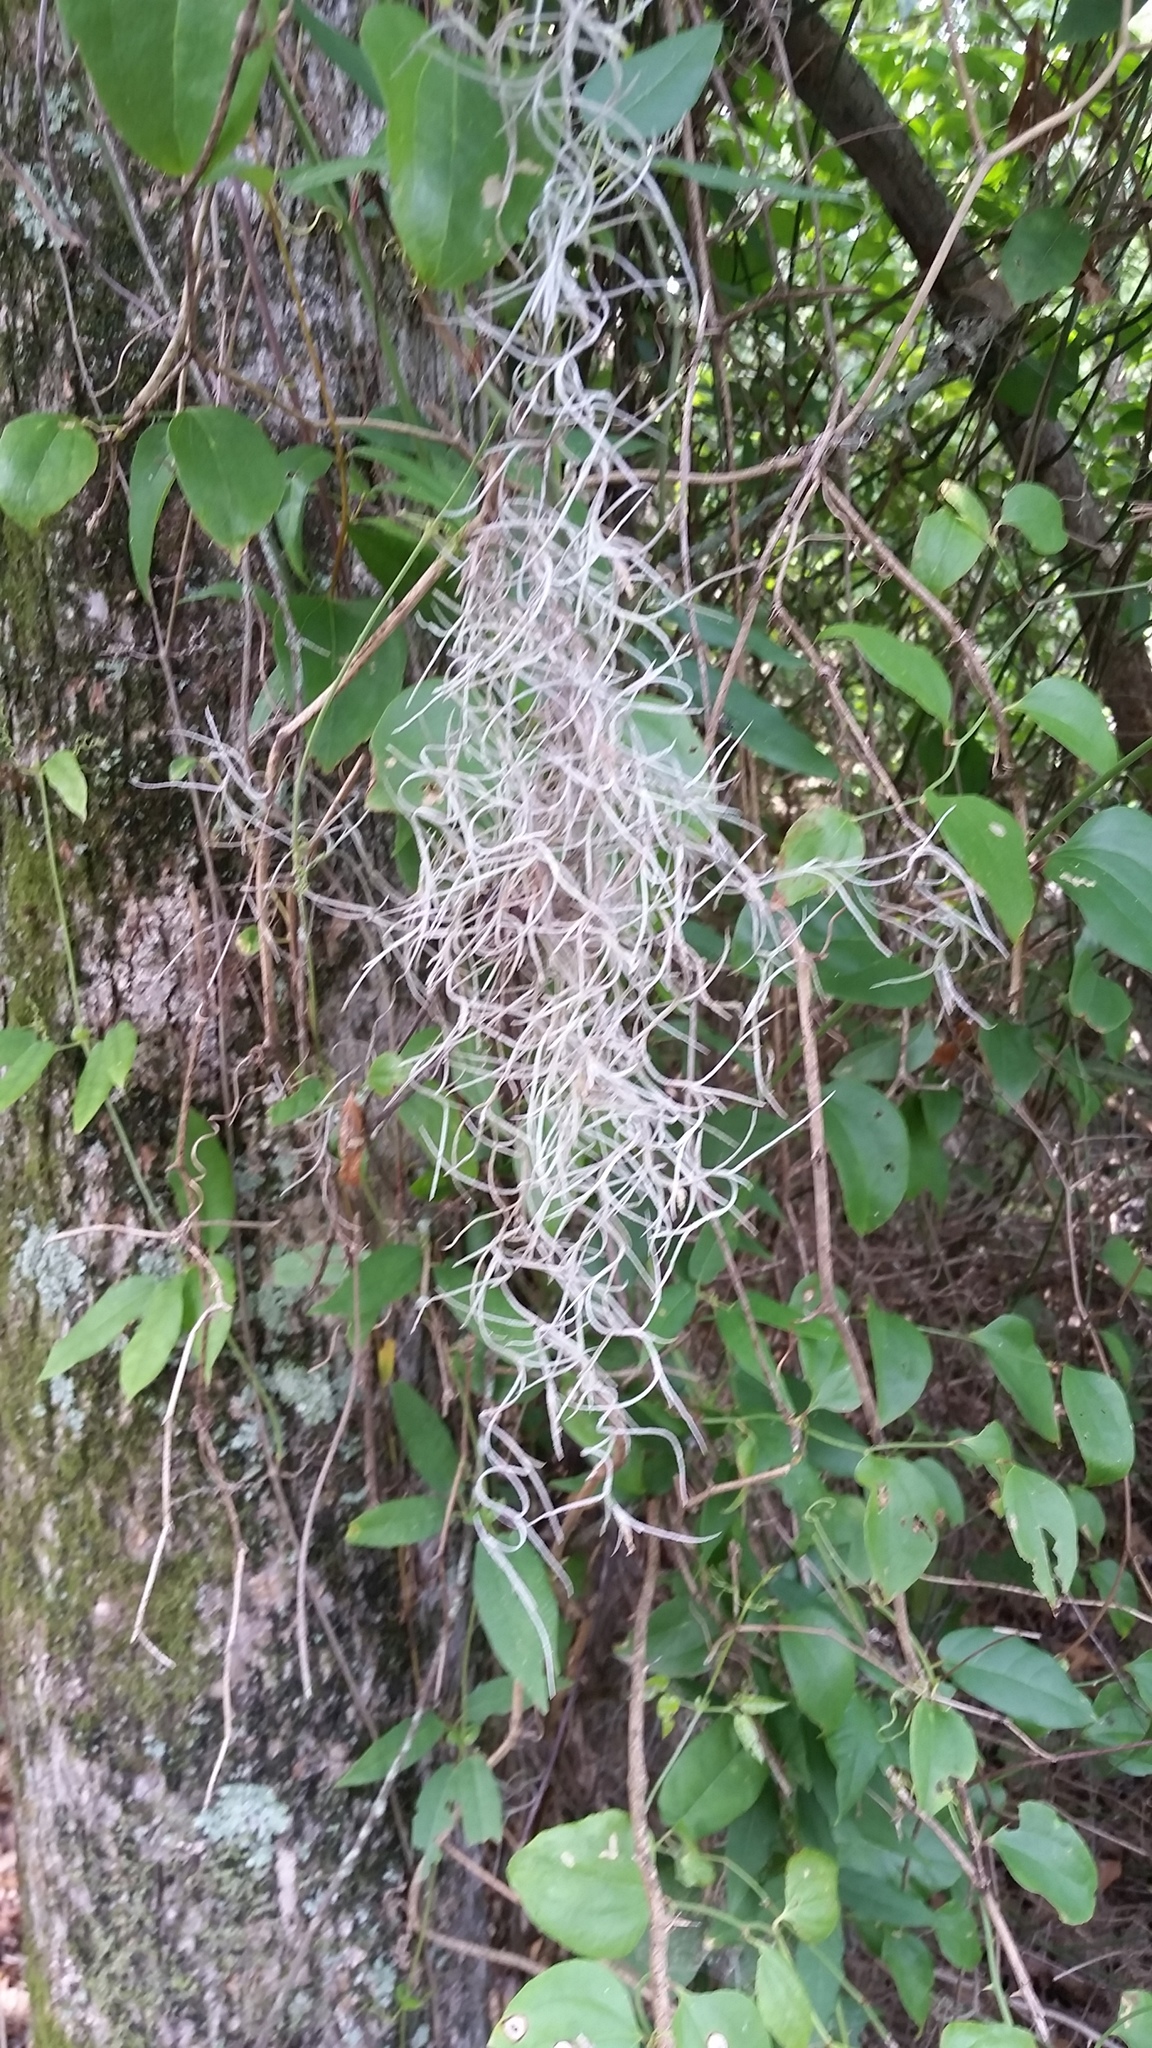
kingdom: Plantae
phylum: Tracheophyta
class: Liliopsida
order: Poales
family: Bromeliaceae
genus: Tillandsia
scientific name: Tillandsia usneoides
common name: Spanish moss
